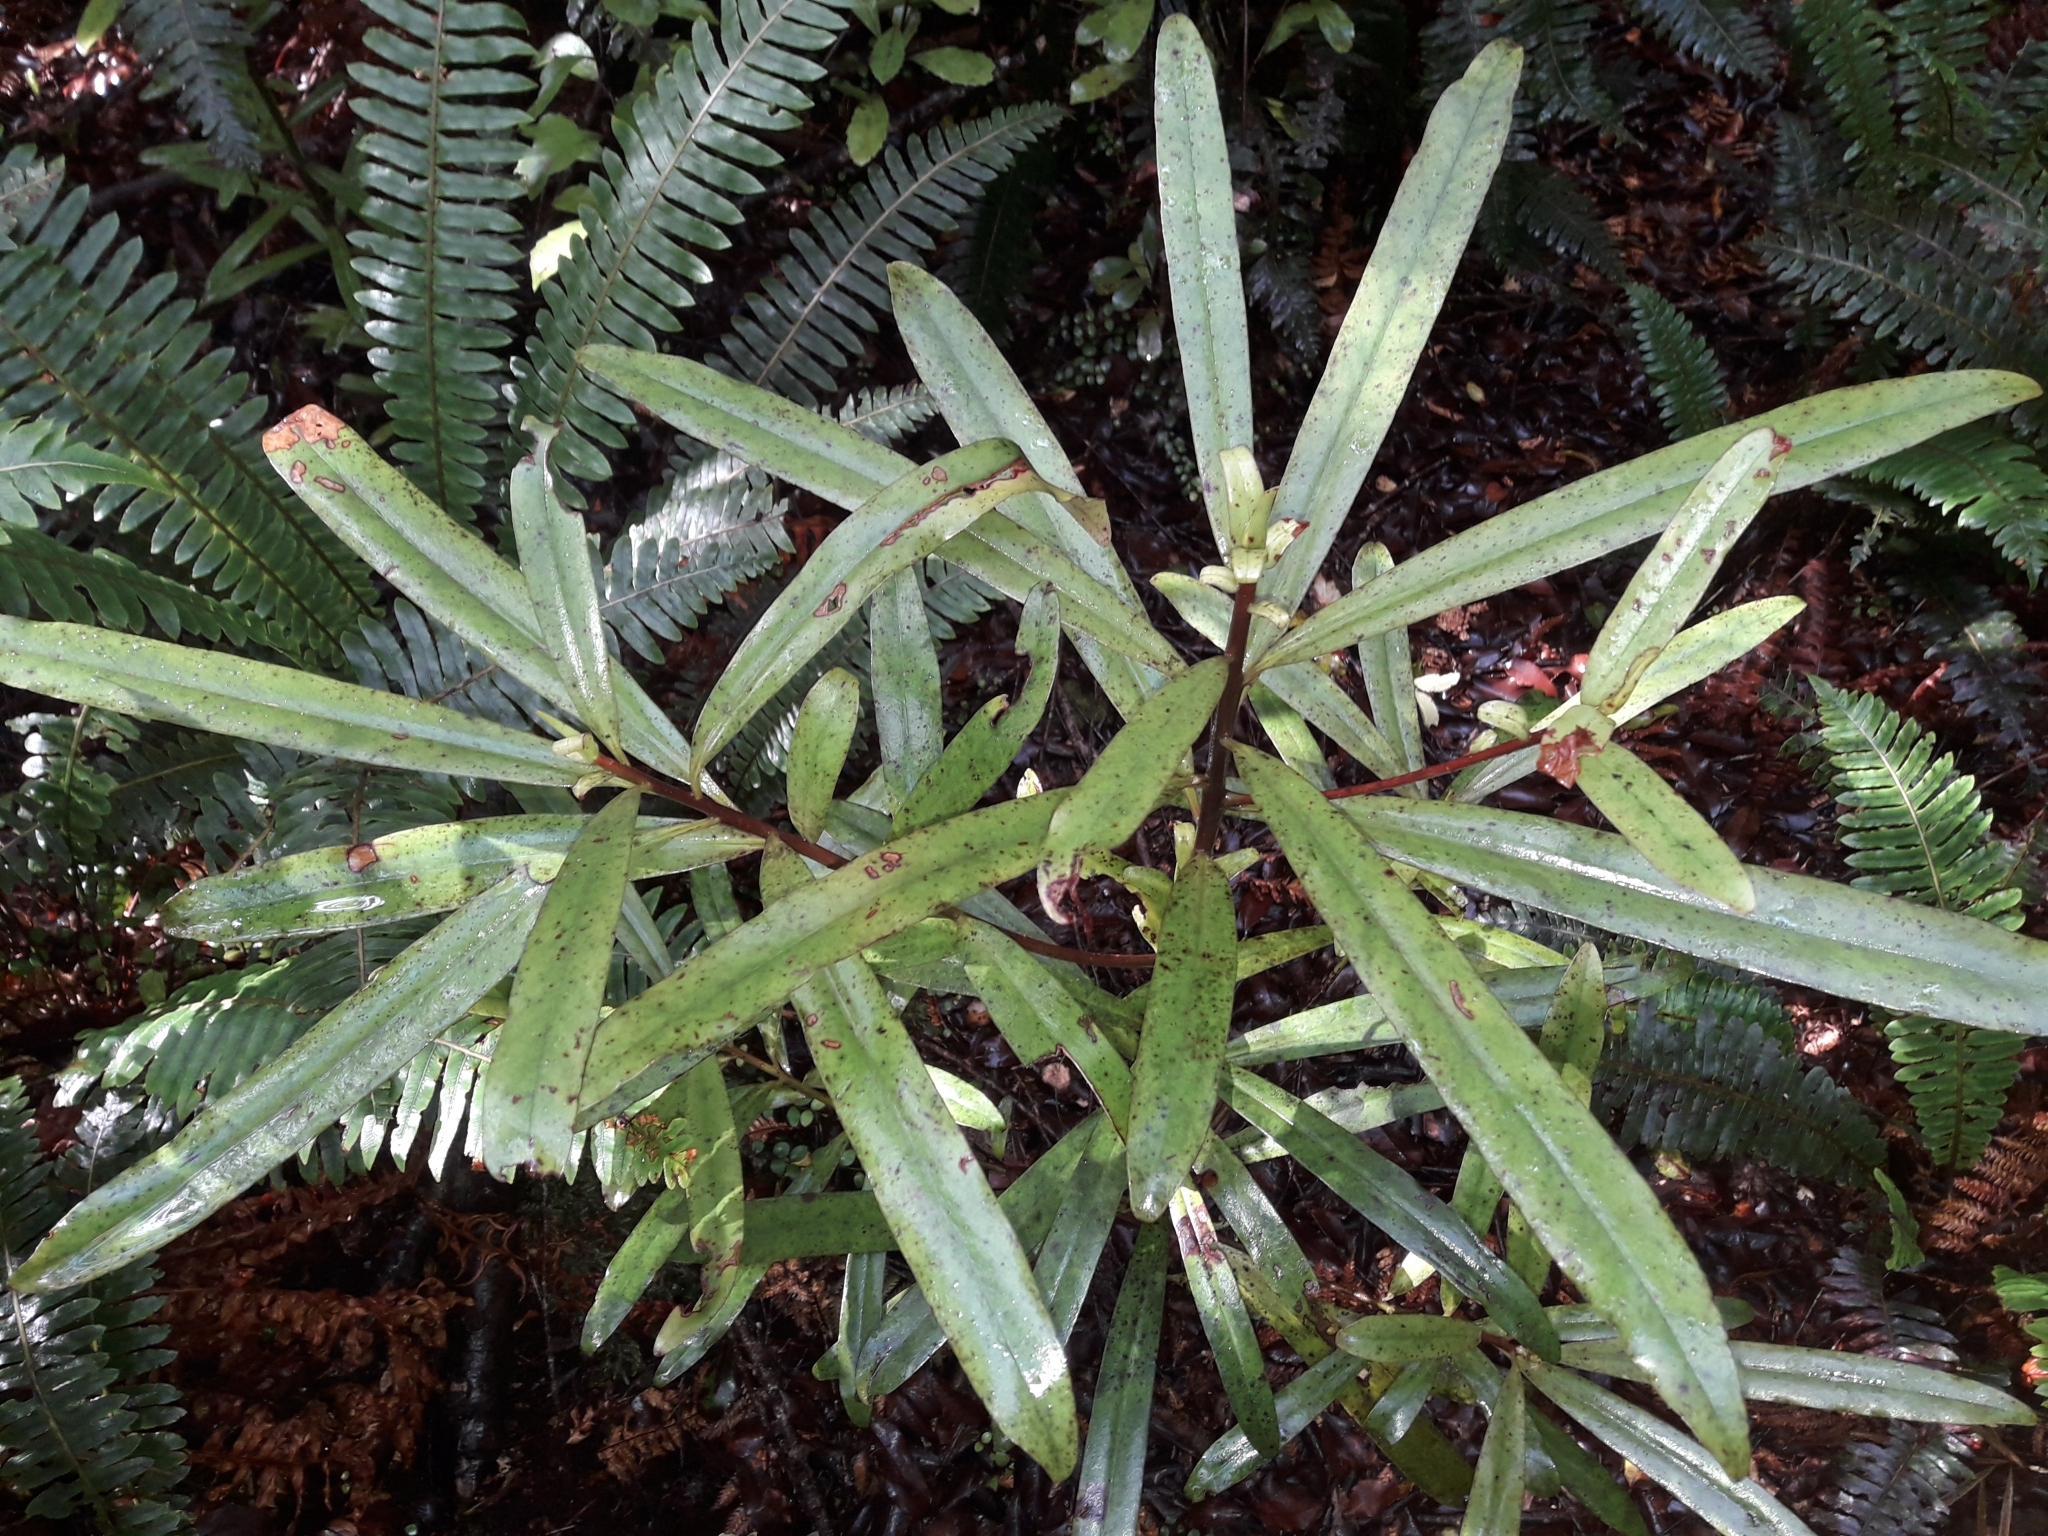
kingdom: Plantae
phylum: Tracheophyta
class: Magnoliopsida
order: Ericales
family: Primulaceae
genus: Myrsine
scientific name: Myrsine salicina
